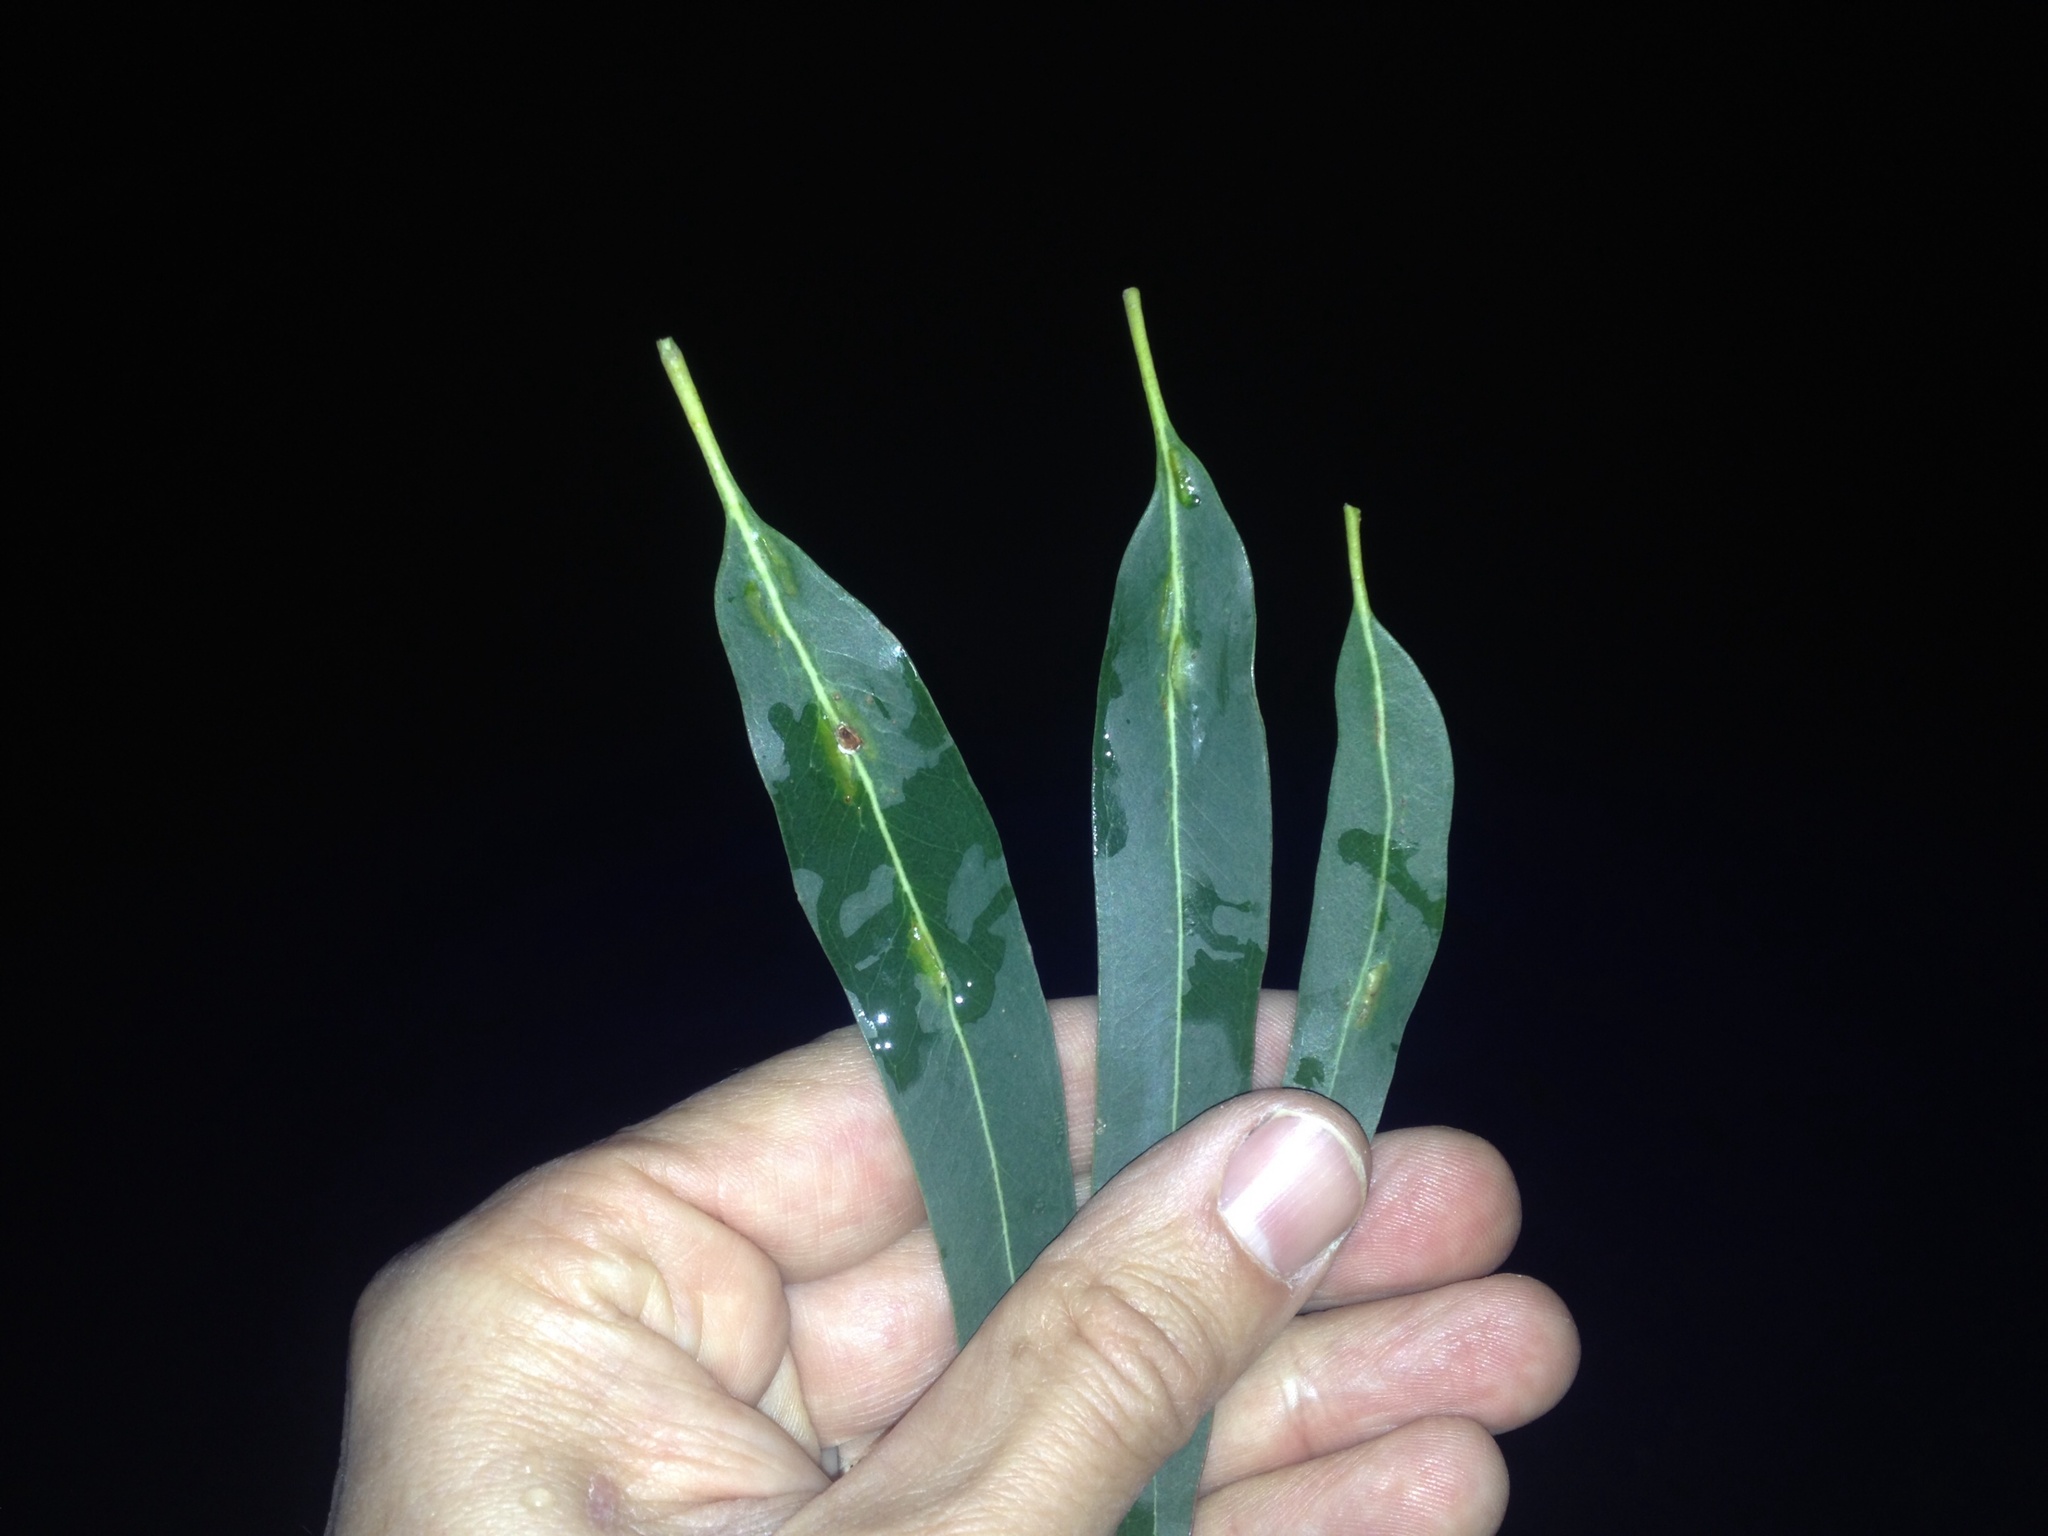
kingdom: Animalia
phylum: Arthropoda
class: Insecta
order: Hymenoptera
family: Pteromalidae
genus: Nambouria
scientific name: Nambouria xanthops
